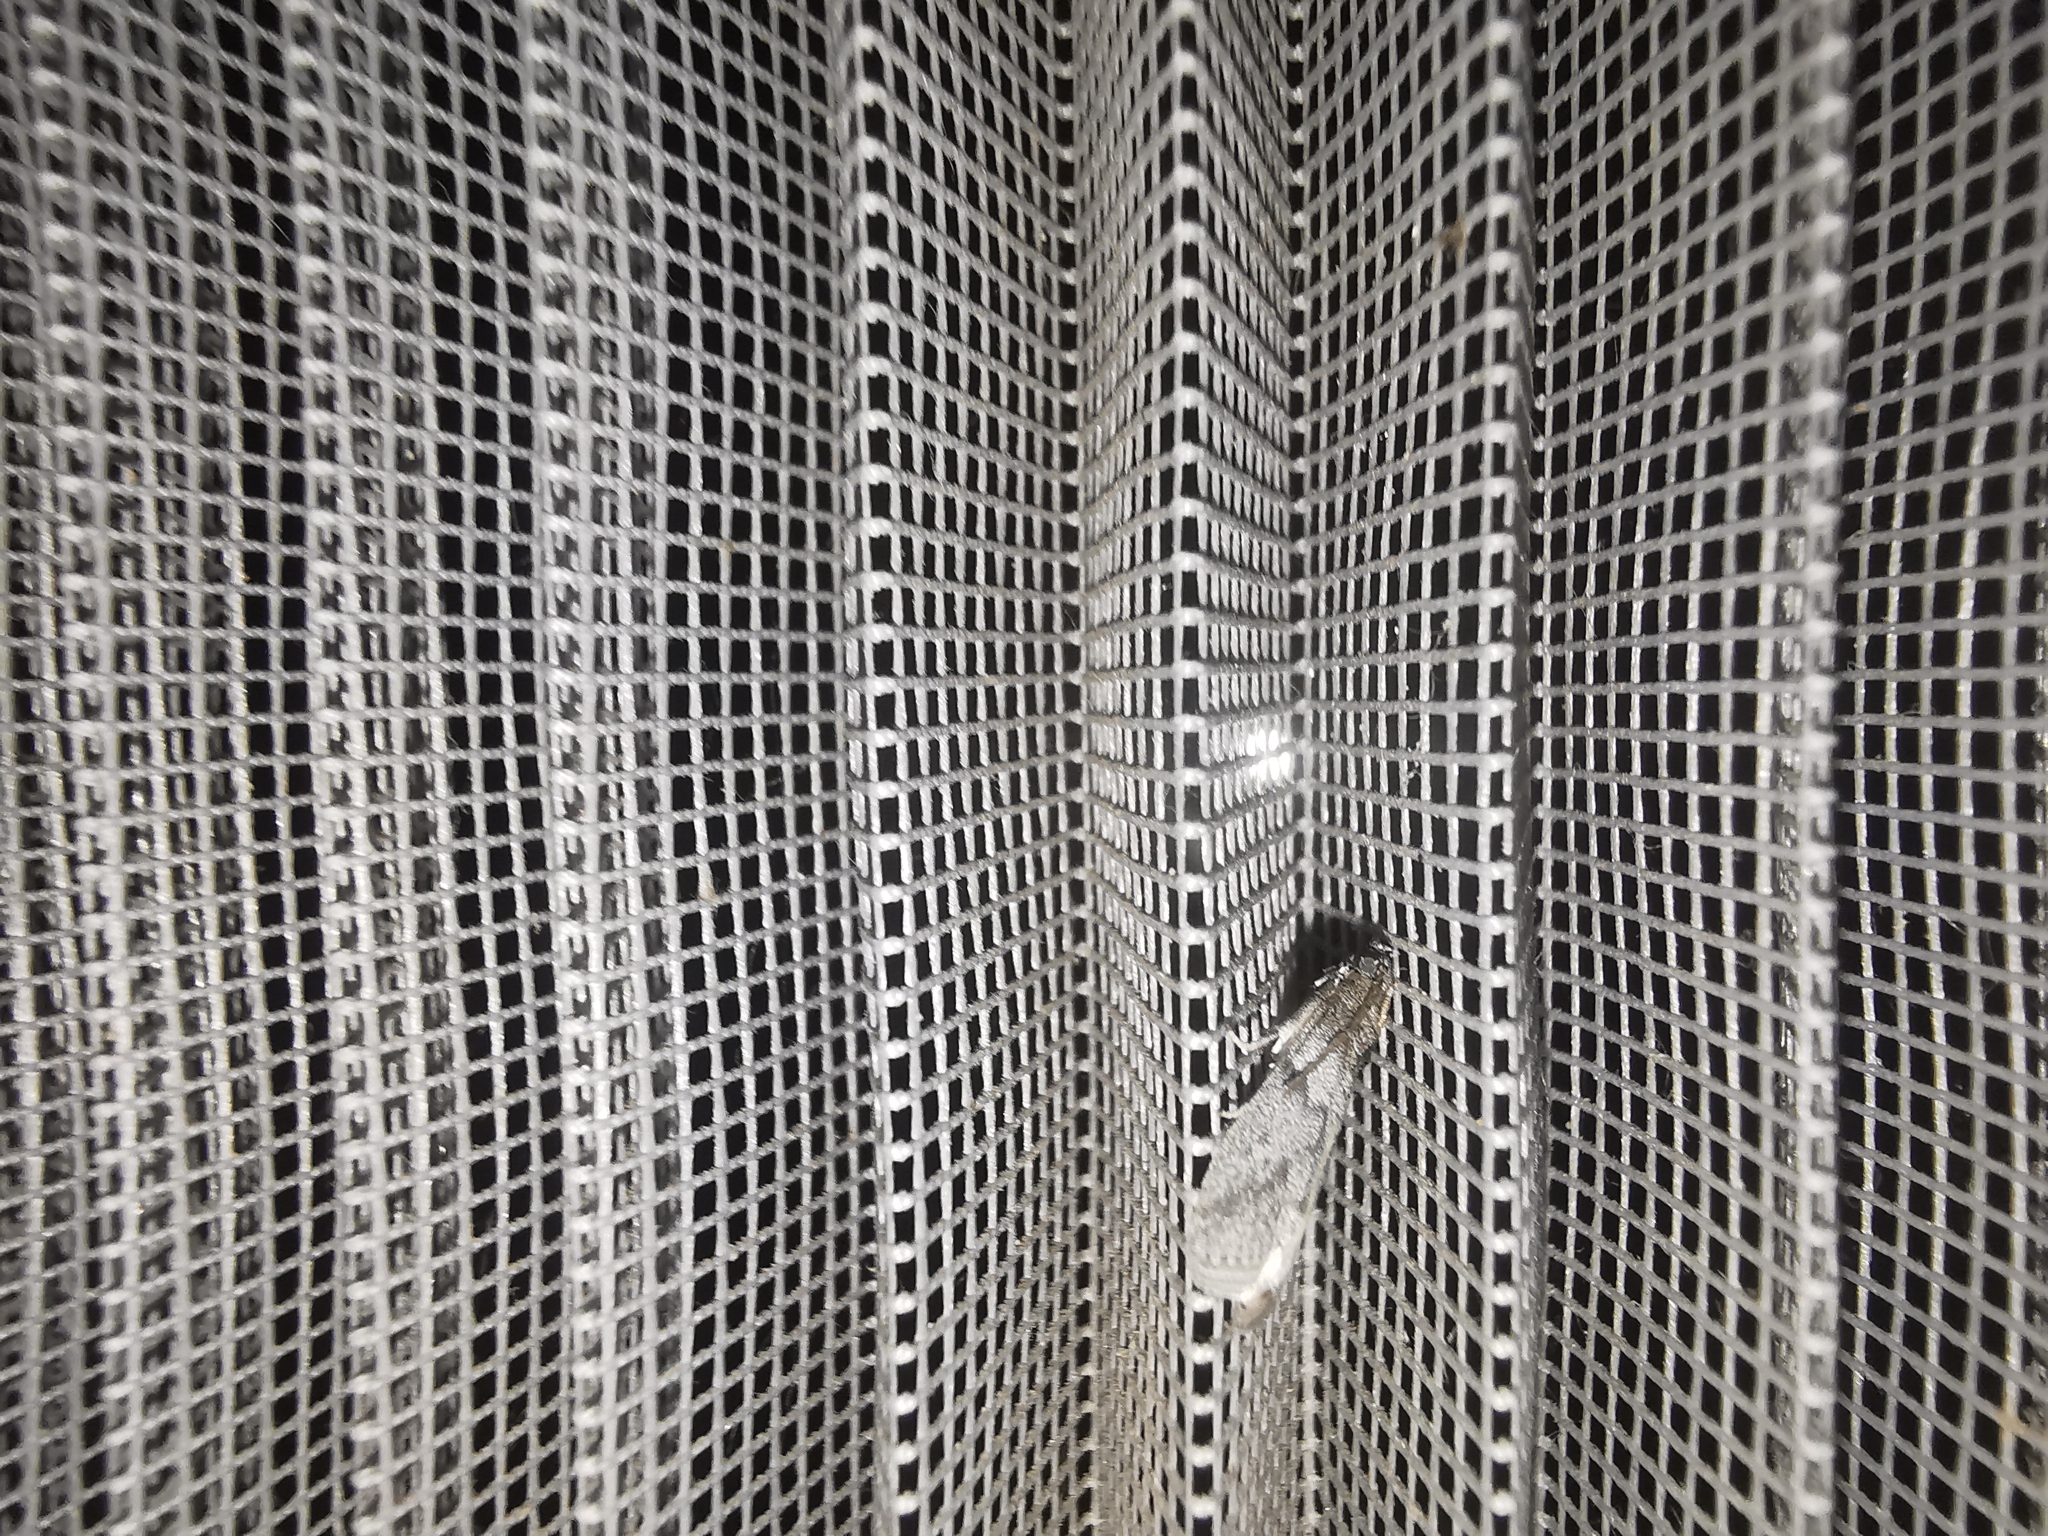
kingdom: Animalia
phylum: Arthropoda
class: Insecta
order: Lepidoptera
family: Pyralidae
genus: Ectomyelois
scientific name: Ectomyelois ceratoniae
